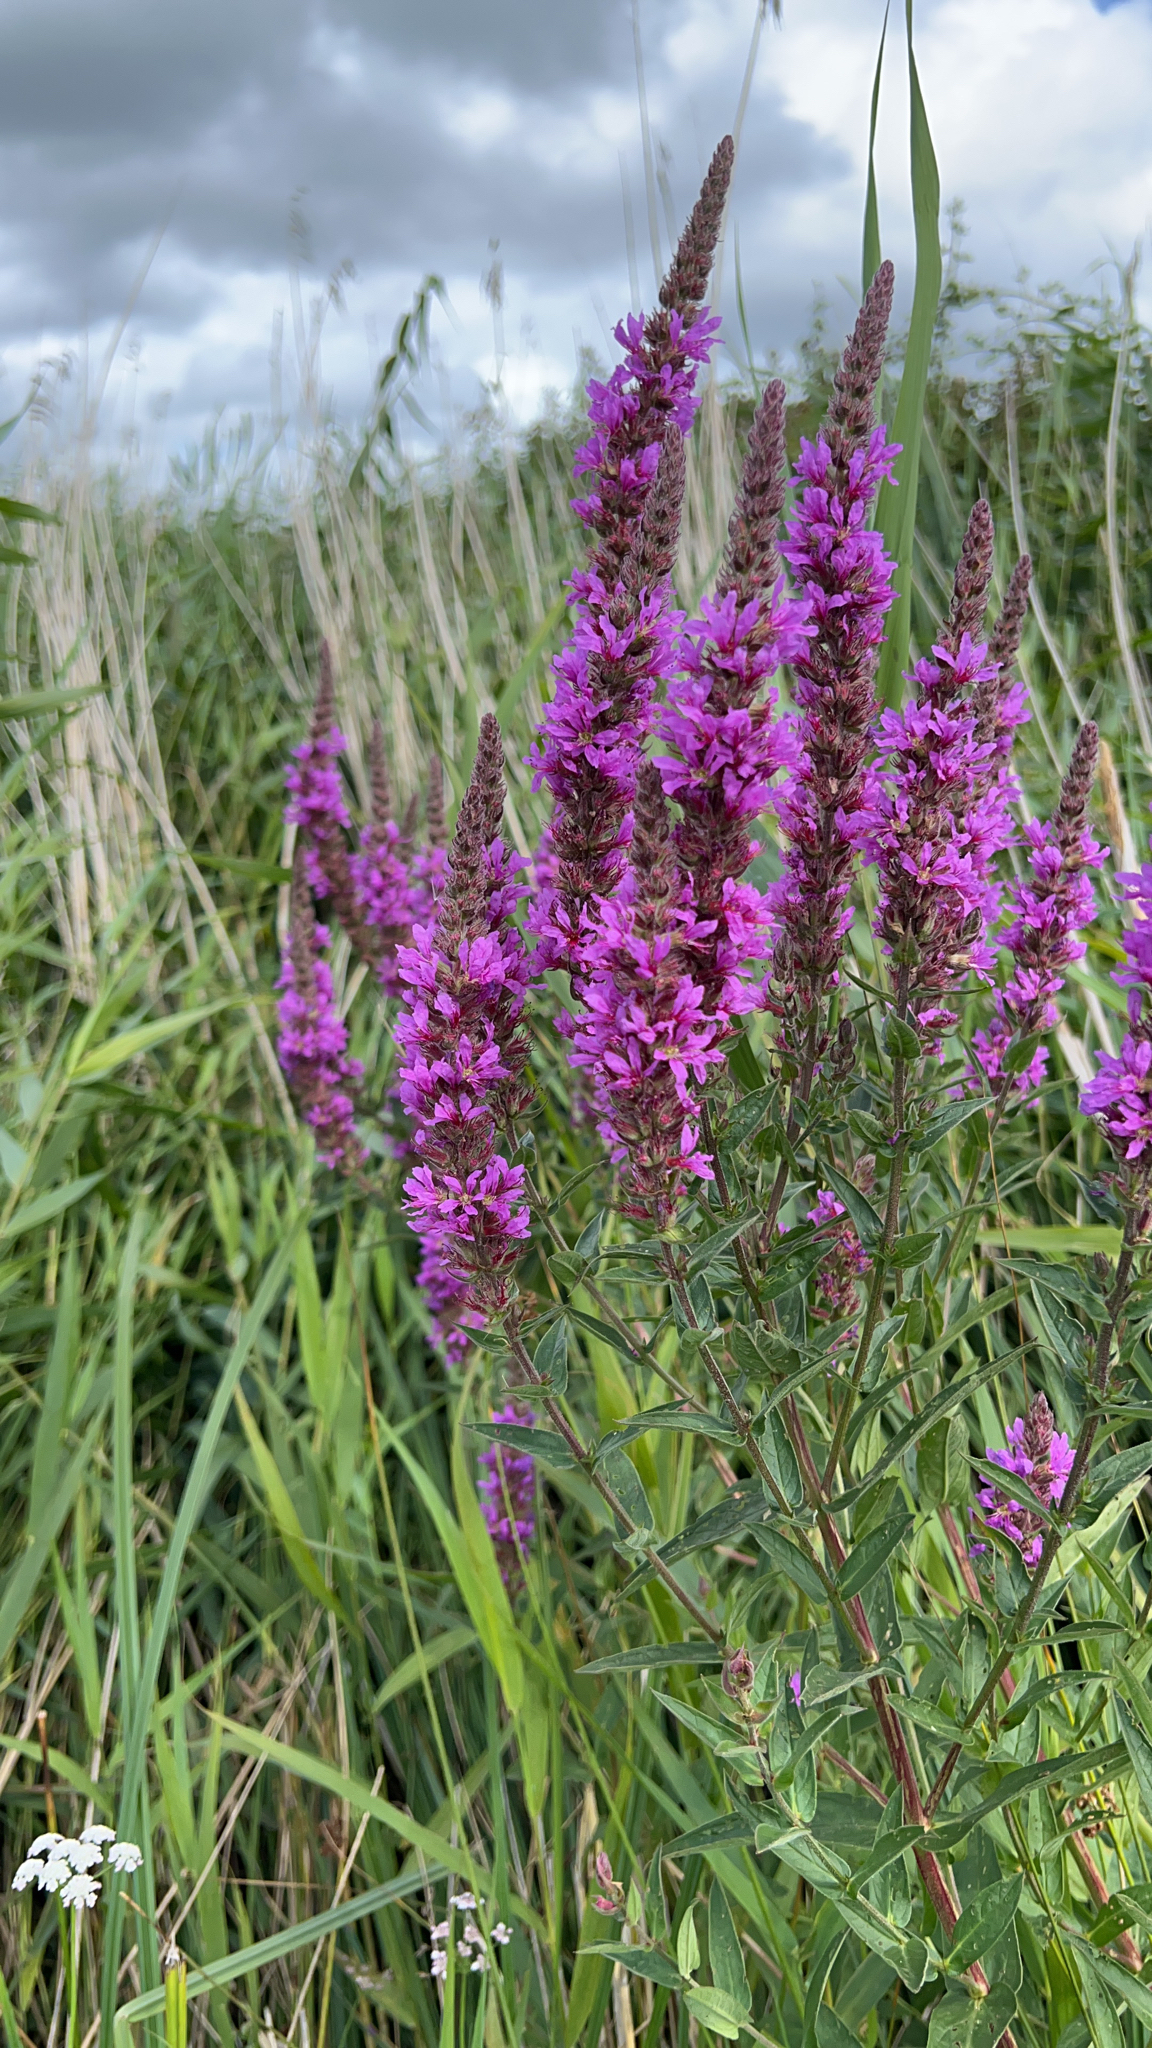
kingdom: Plantae
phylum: Tracheophyta
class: Magnoliopsida
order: Myrtales
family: Lythraceae
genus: Lythrum
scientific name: Lythrum salicaria
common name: Purple loosestrife
